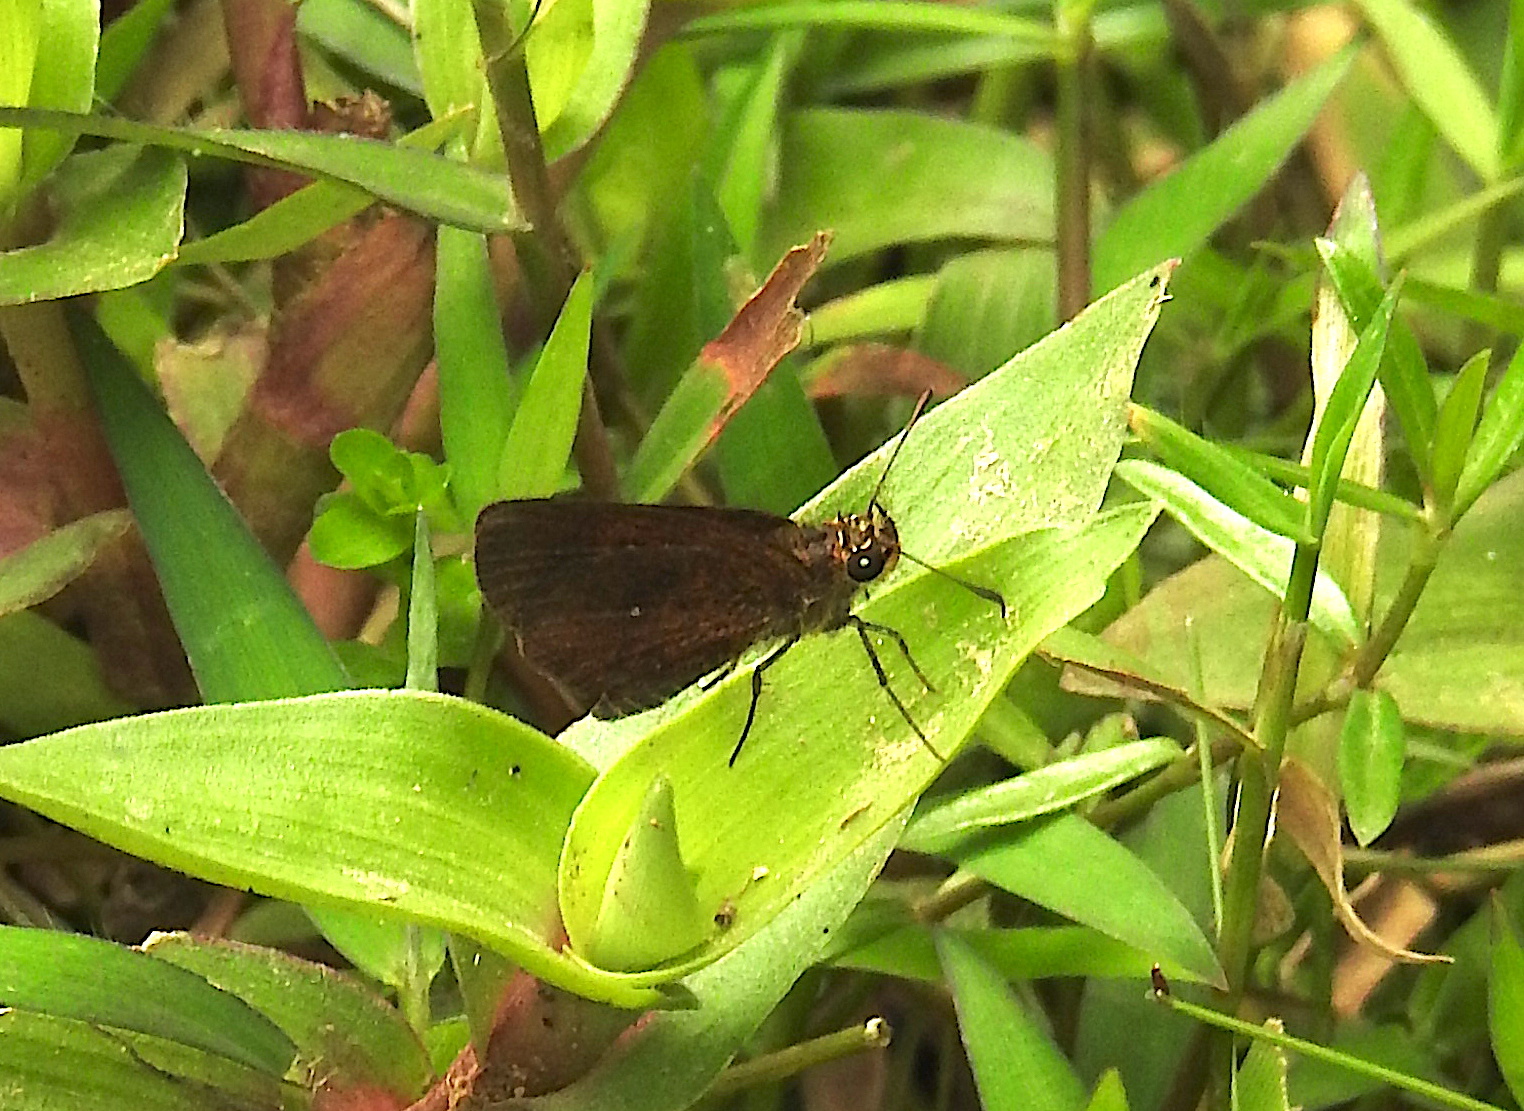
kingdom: Animalia
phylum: Arthropoda
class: Insecta
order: Lepidoptera
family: Hesperiidae
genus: Iambrix
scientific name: Iambrix salsala
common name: Chestnut bob
